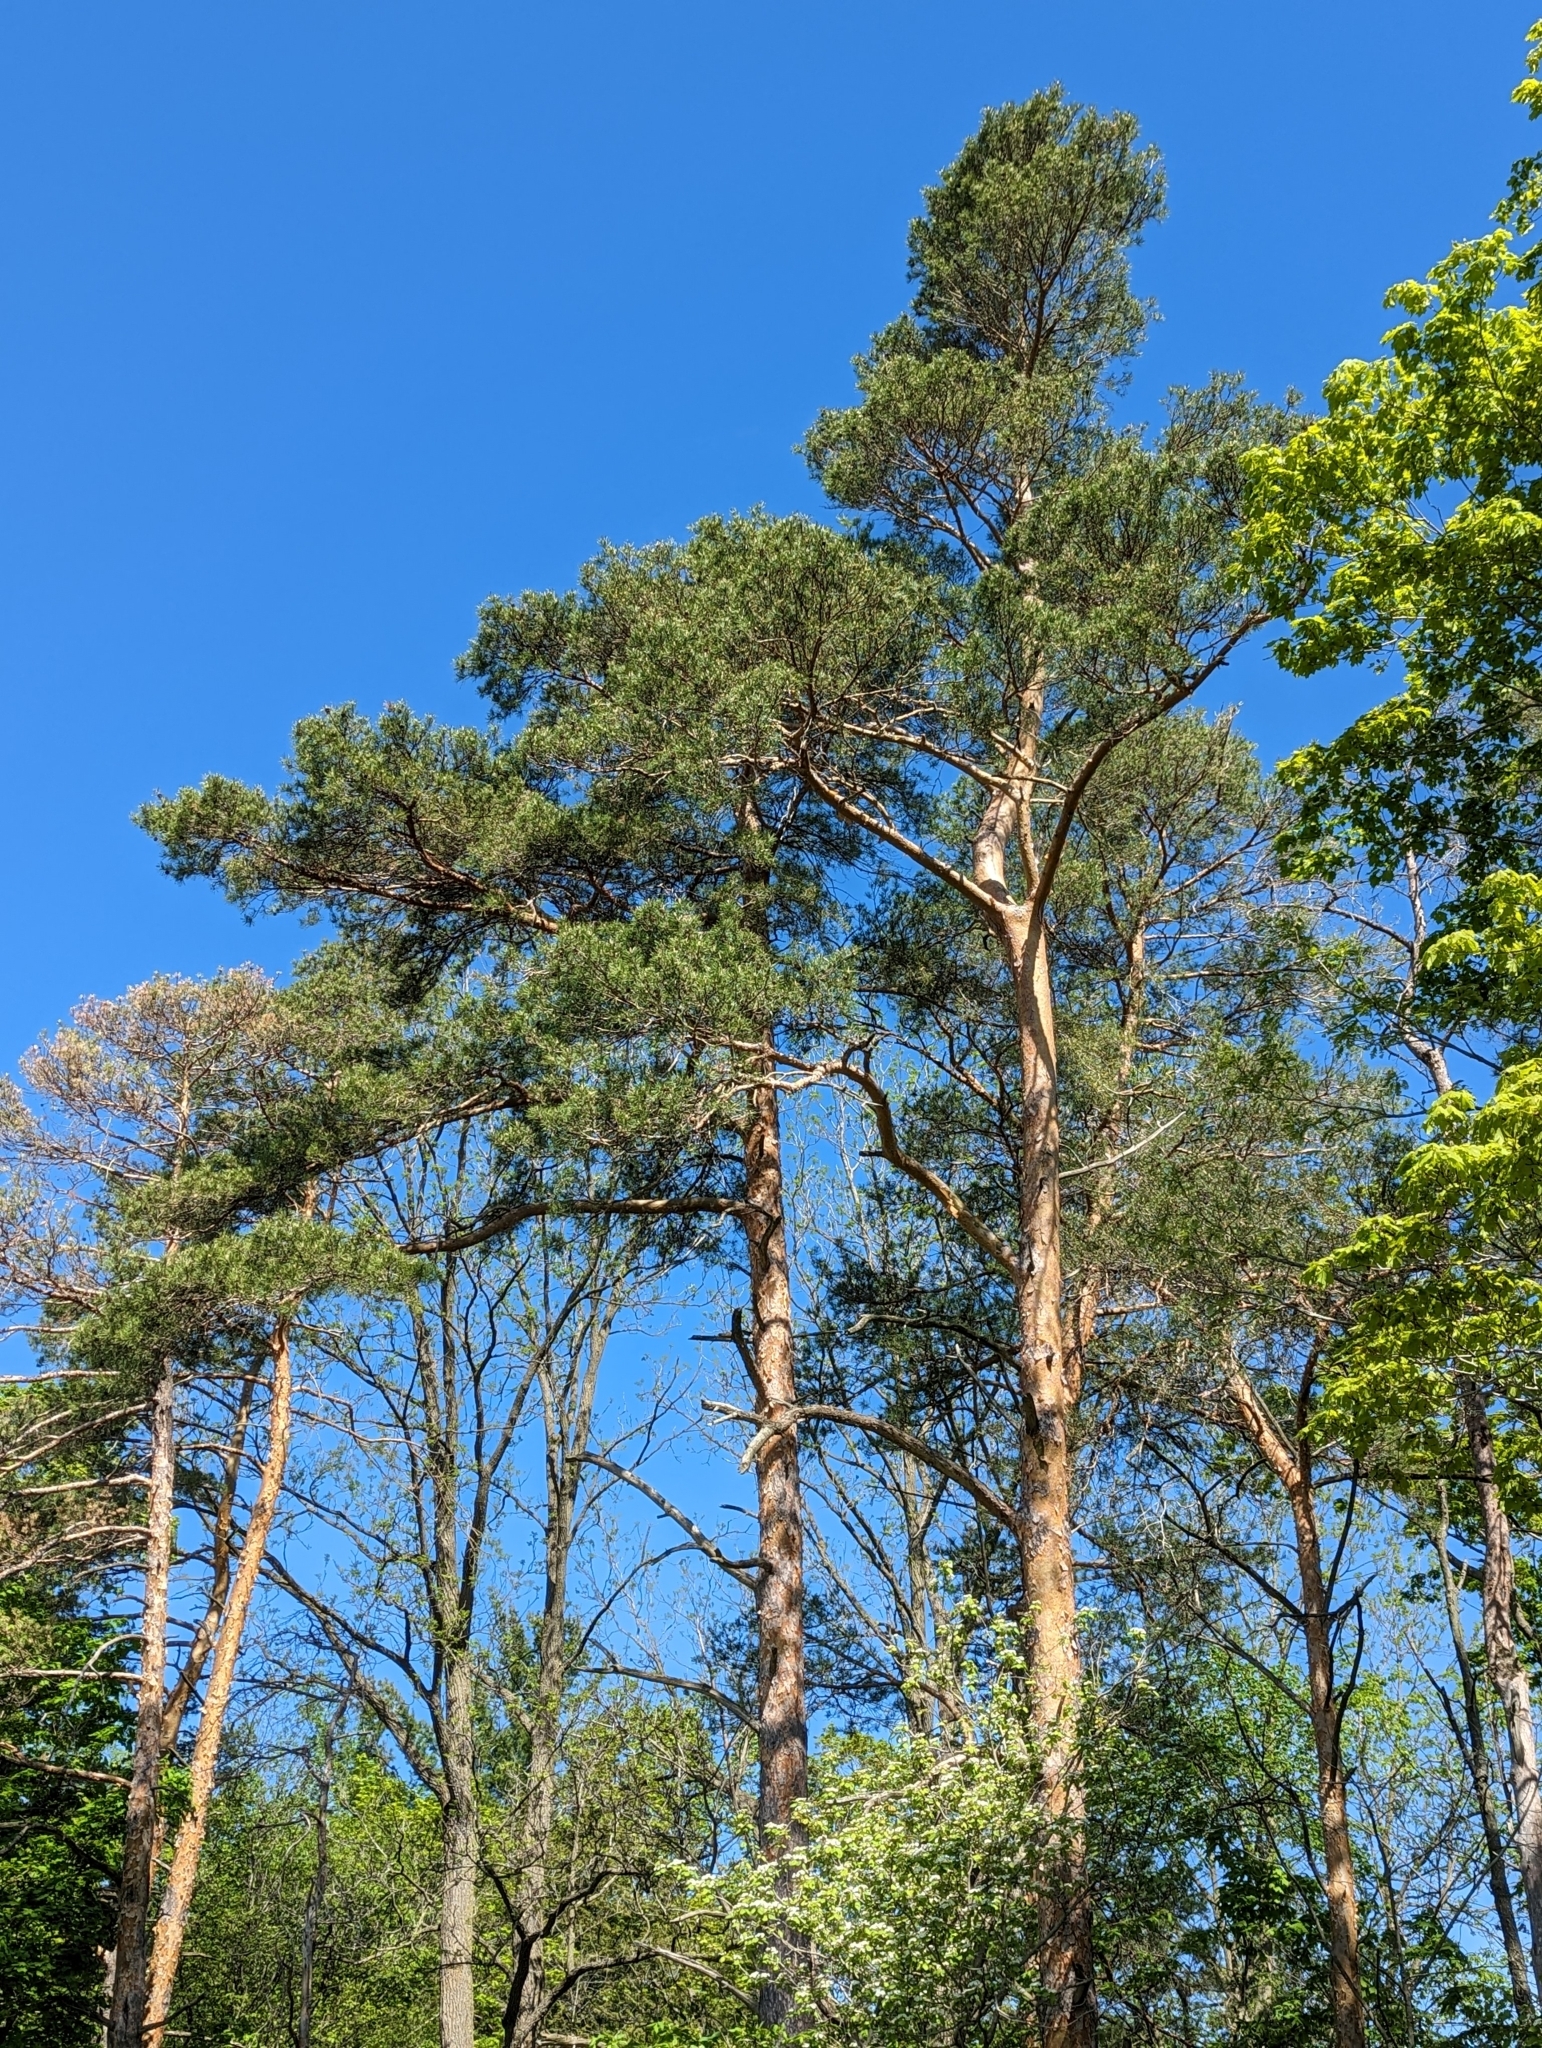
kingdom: Plantae
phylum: Tracheophyta
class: Pinopsida
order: Pinales
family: Pinaceae
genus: Pinus
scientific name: Pinus sylvestris
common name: Scots pine
